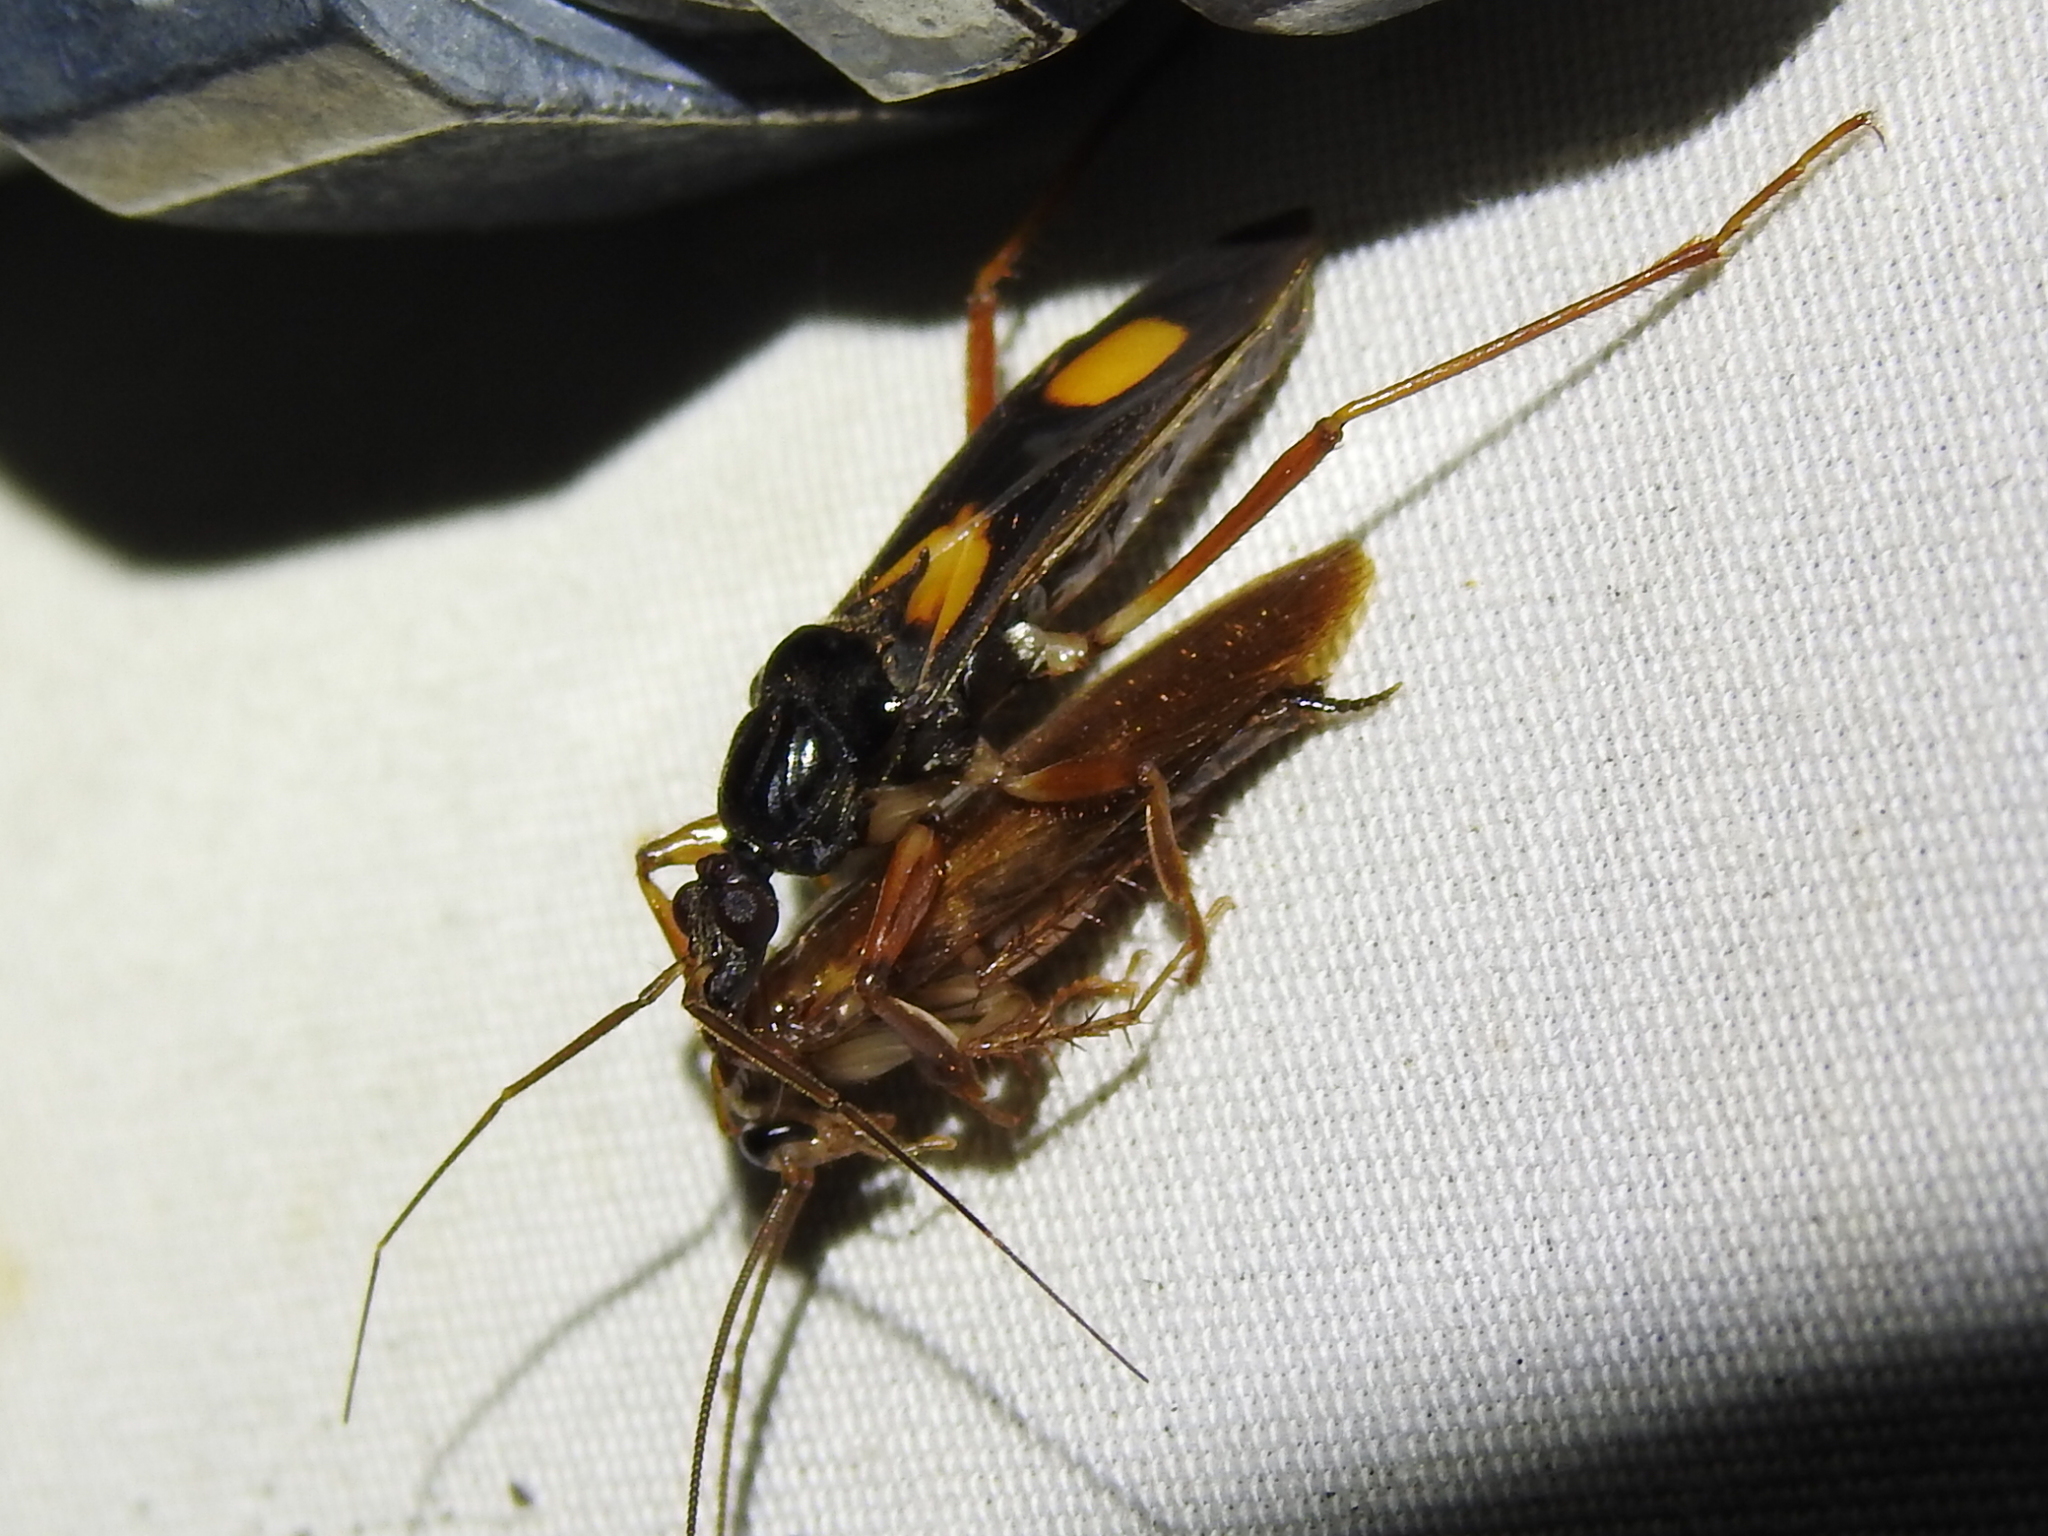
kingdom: Animalia
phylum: Arthropoda
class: Insecta
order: Hemiptera
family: Reduviidae
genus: Rasahus
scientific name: Rasahus hamatus
